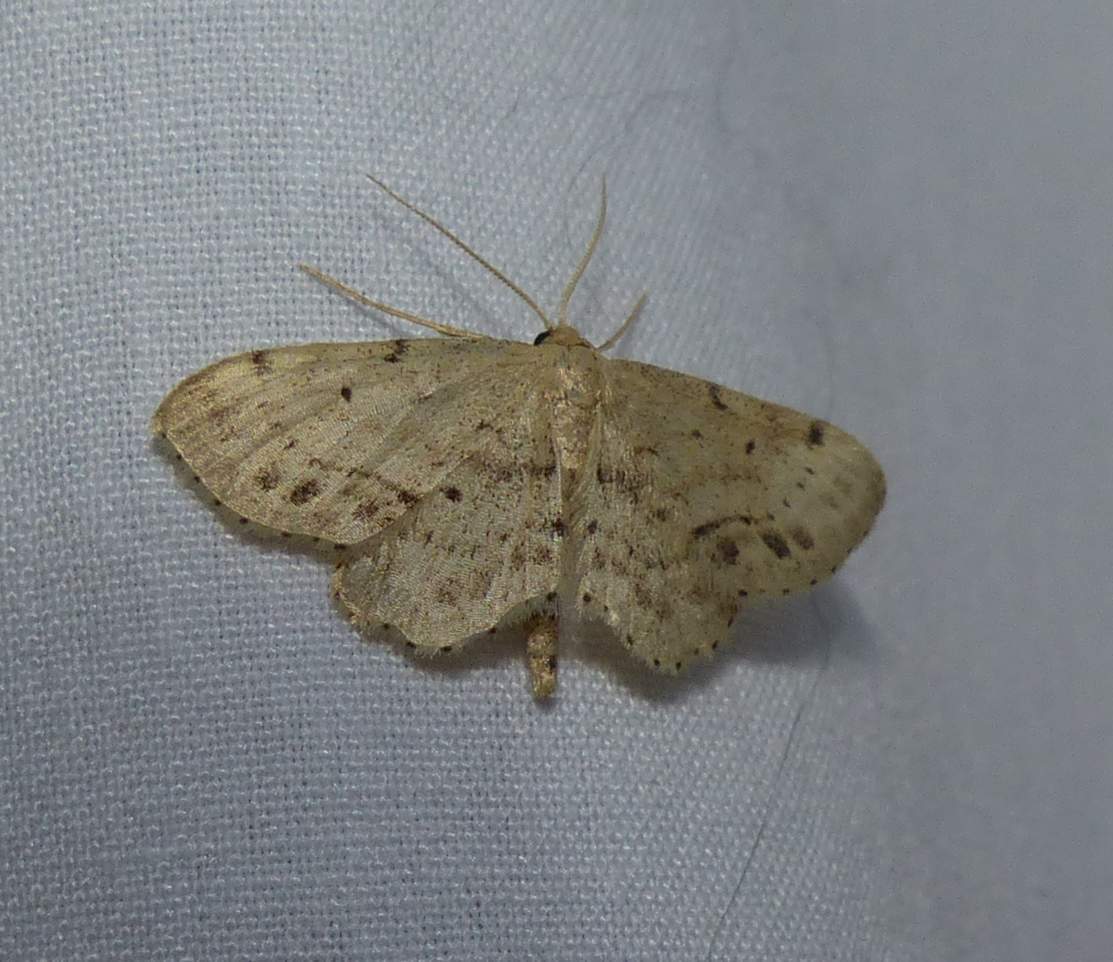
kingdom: Animalia
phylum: Arthropoda
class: Insecta
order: Lepidoptera
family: Geometridae
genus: Idaea
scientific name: Idaea dimidiata
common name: Single-dotted wave
